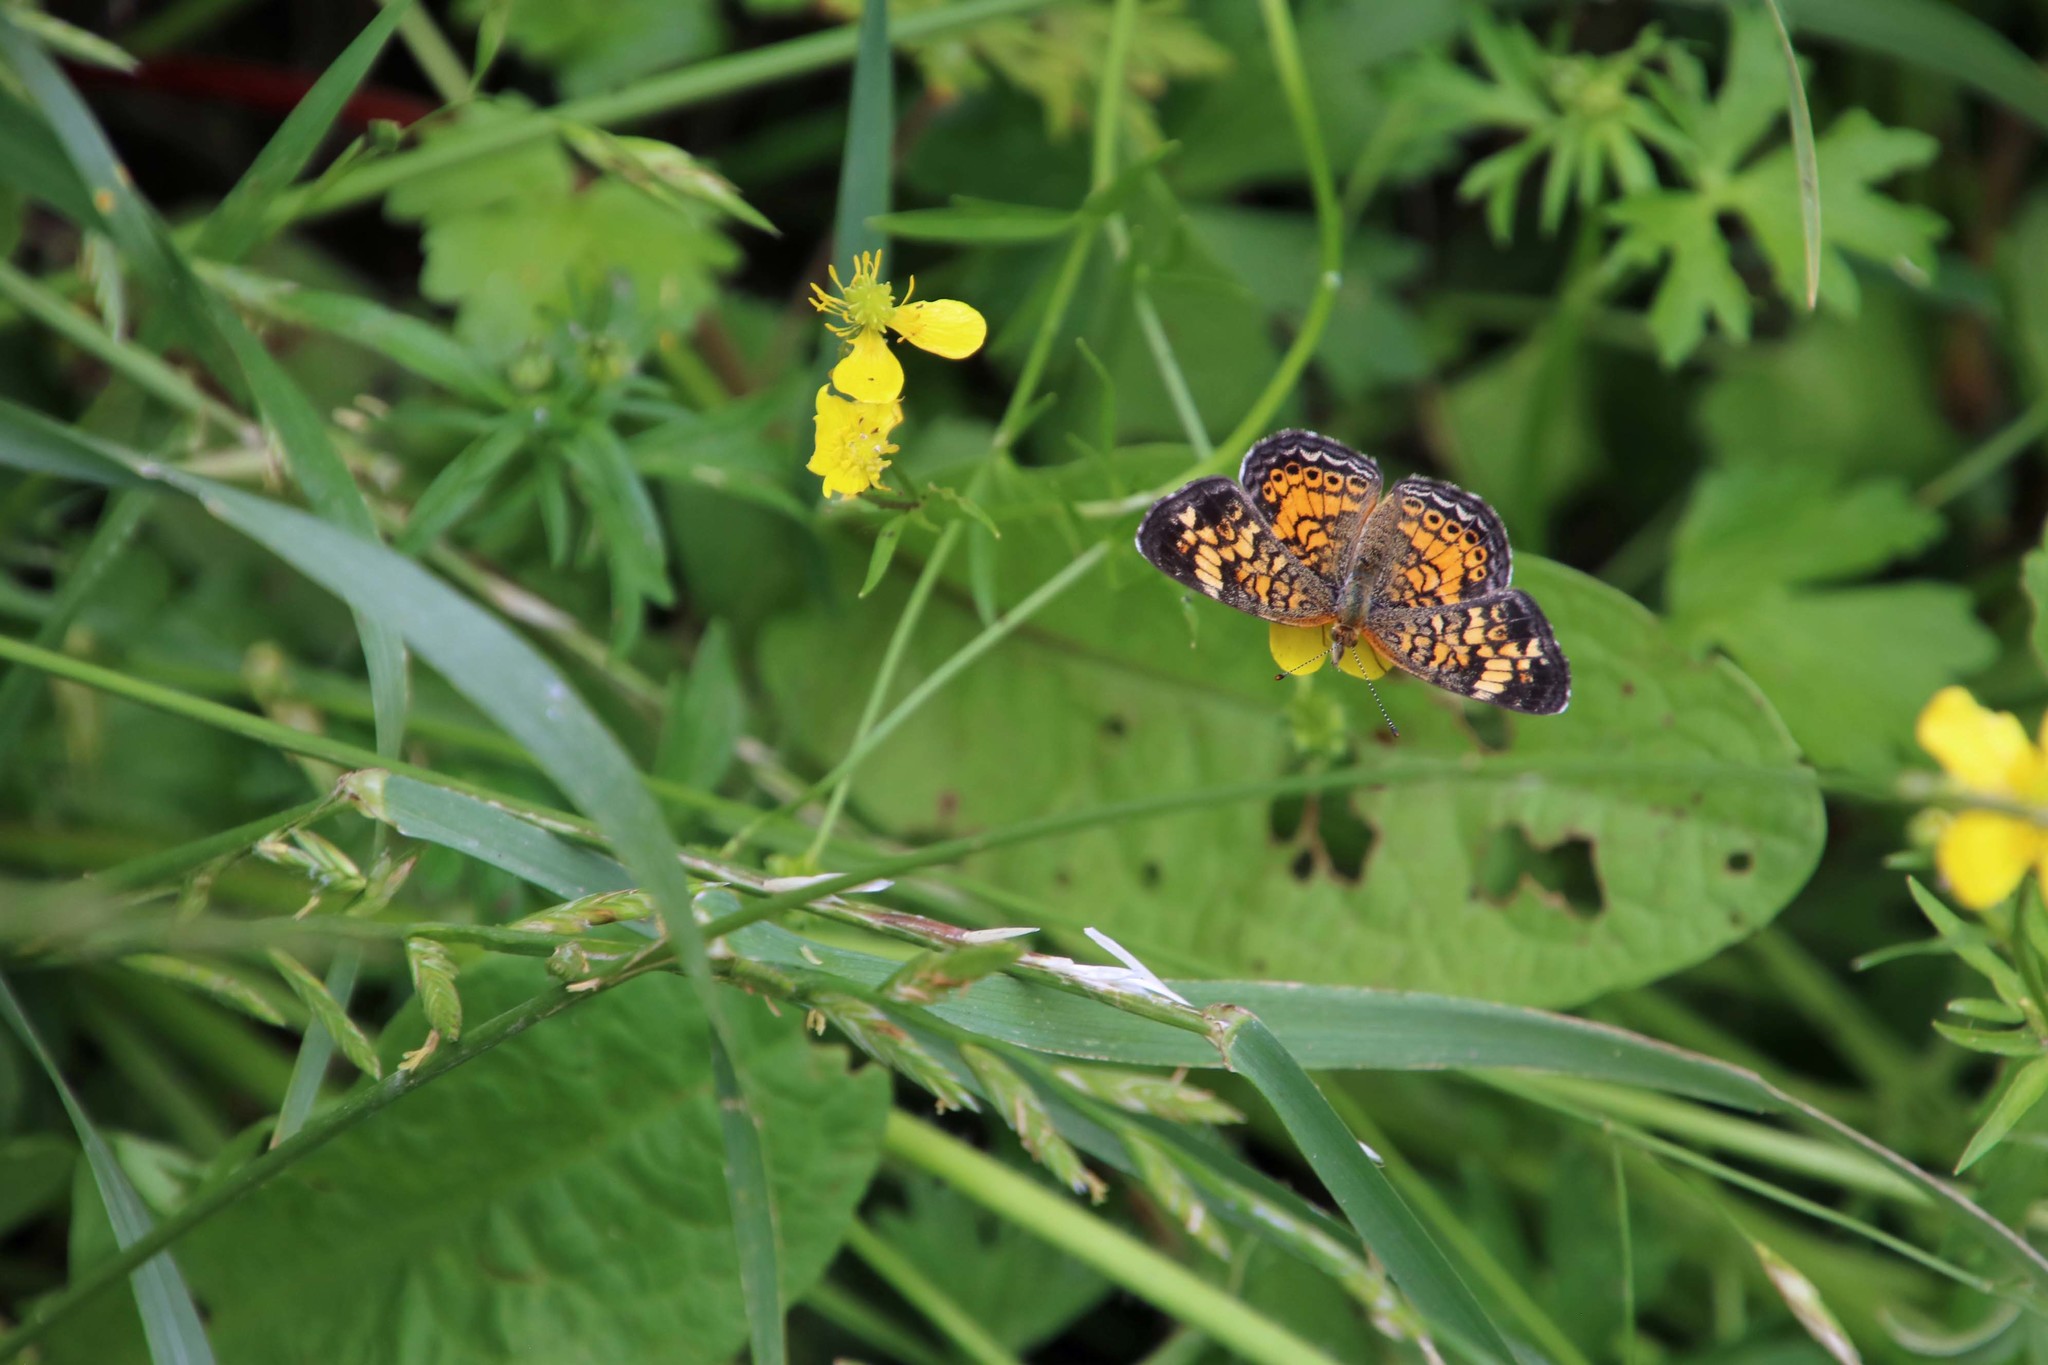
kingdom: Animalia
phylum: Arthropoda
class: Insecta
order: Lepidoptera
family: Nymphalidae
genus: Phyciodes
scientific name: Phyciodes tharos
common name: Pearl crescent
